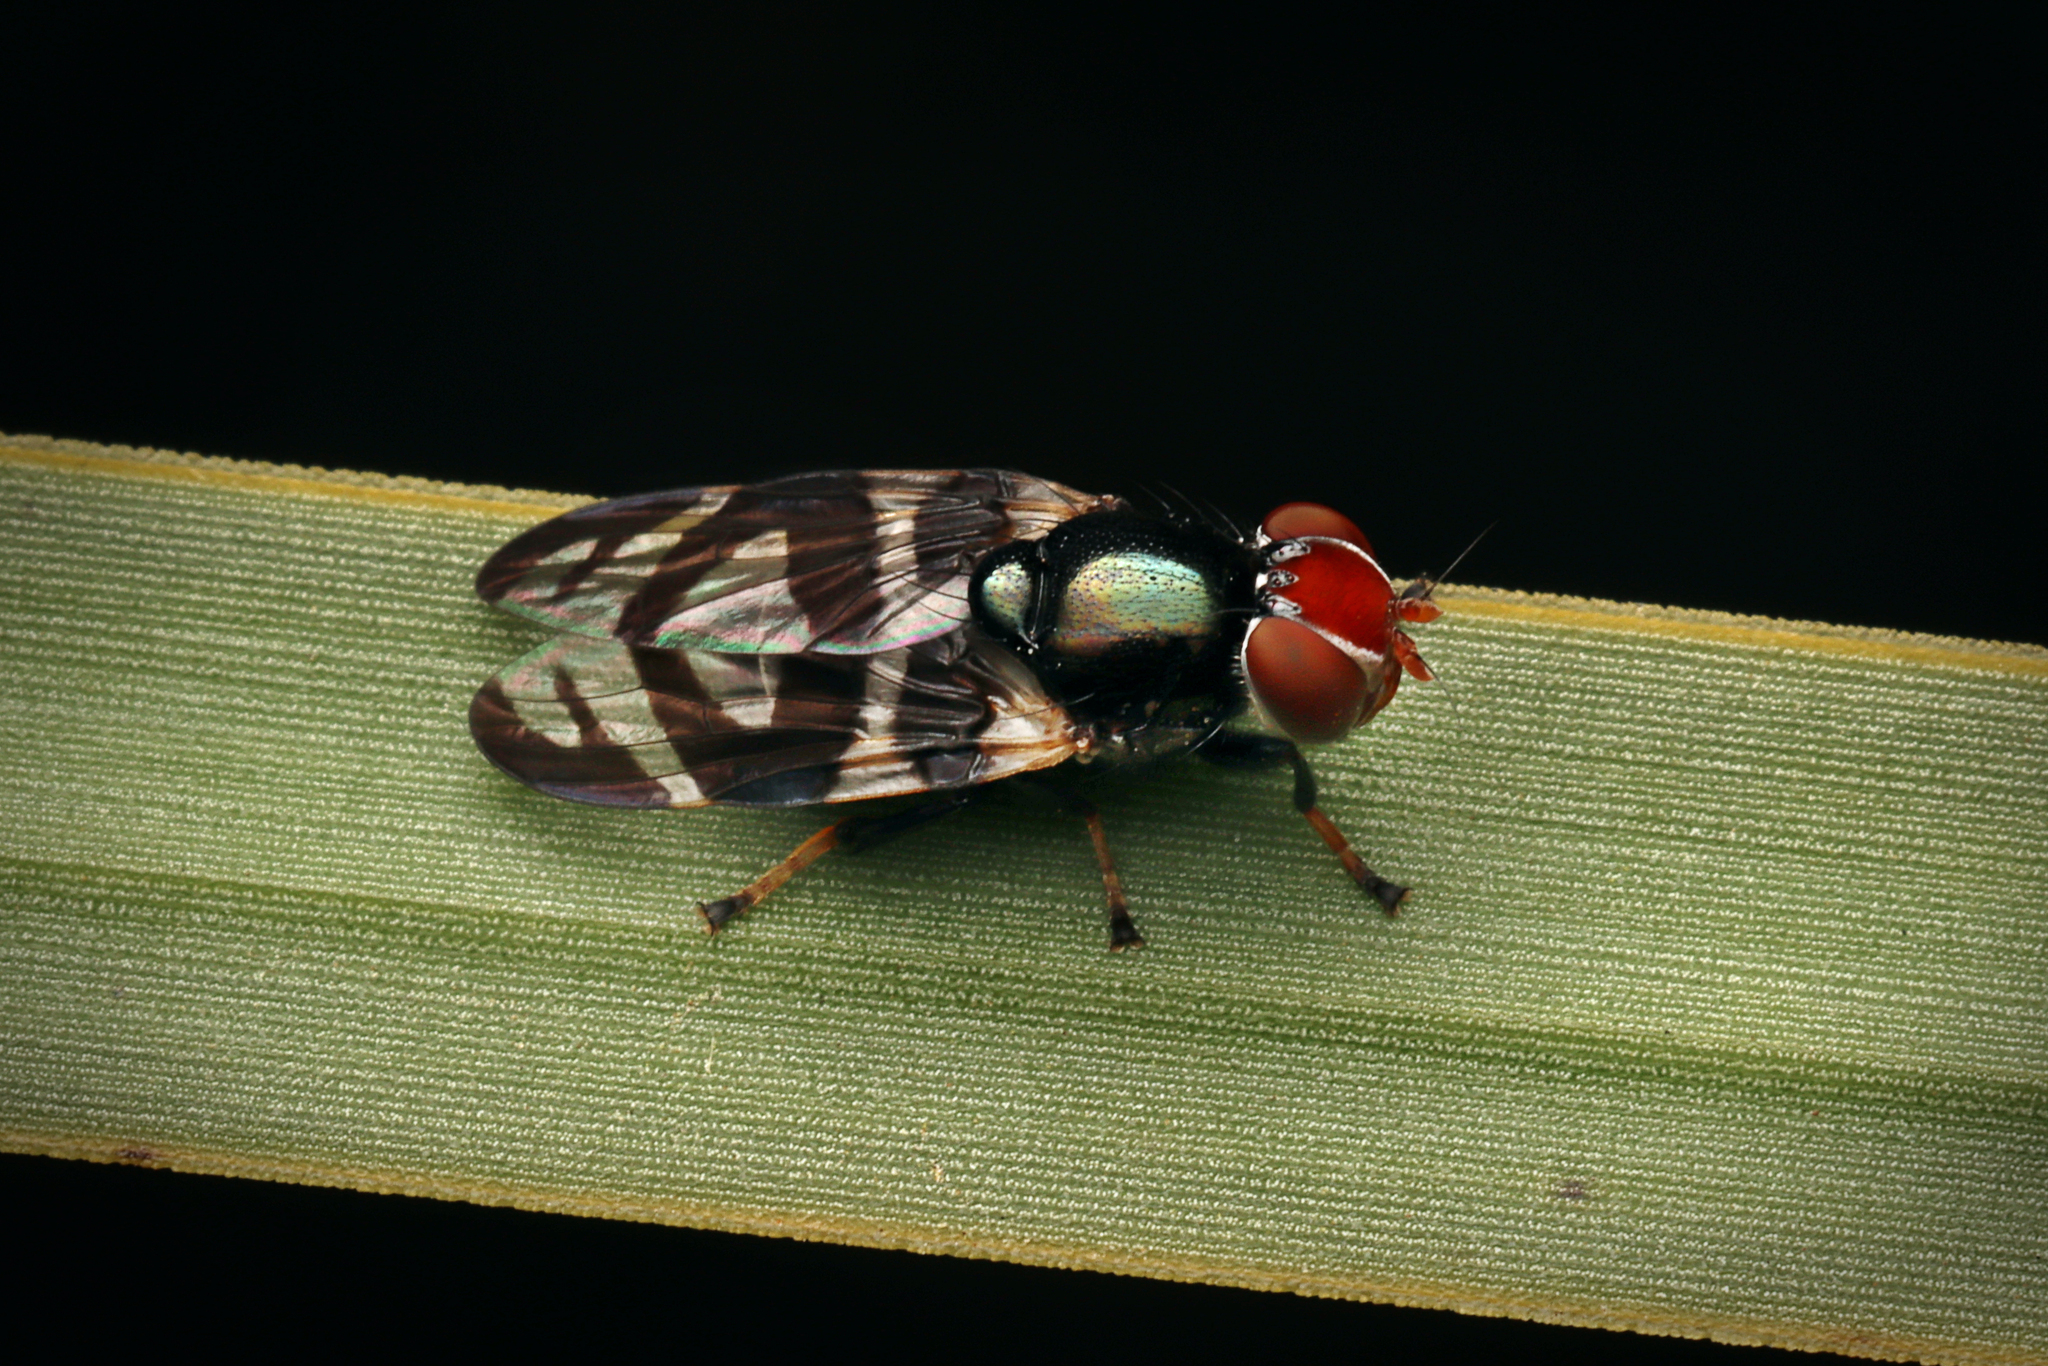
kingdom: Animalia
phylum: Arthropoda
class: Insecta
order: Diptera
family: Platystomatidae
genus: Lenophila
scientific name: Lenophila achilles
